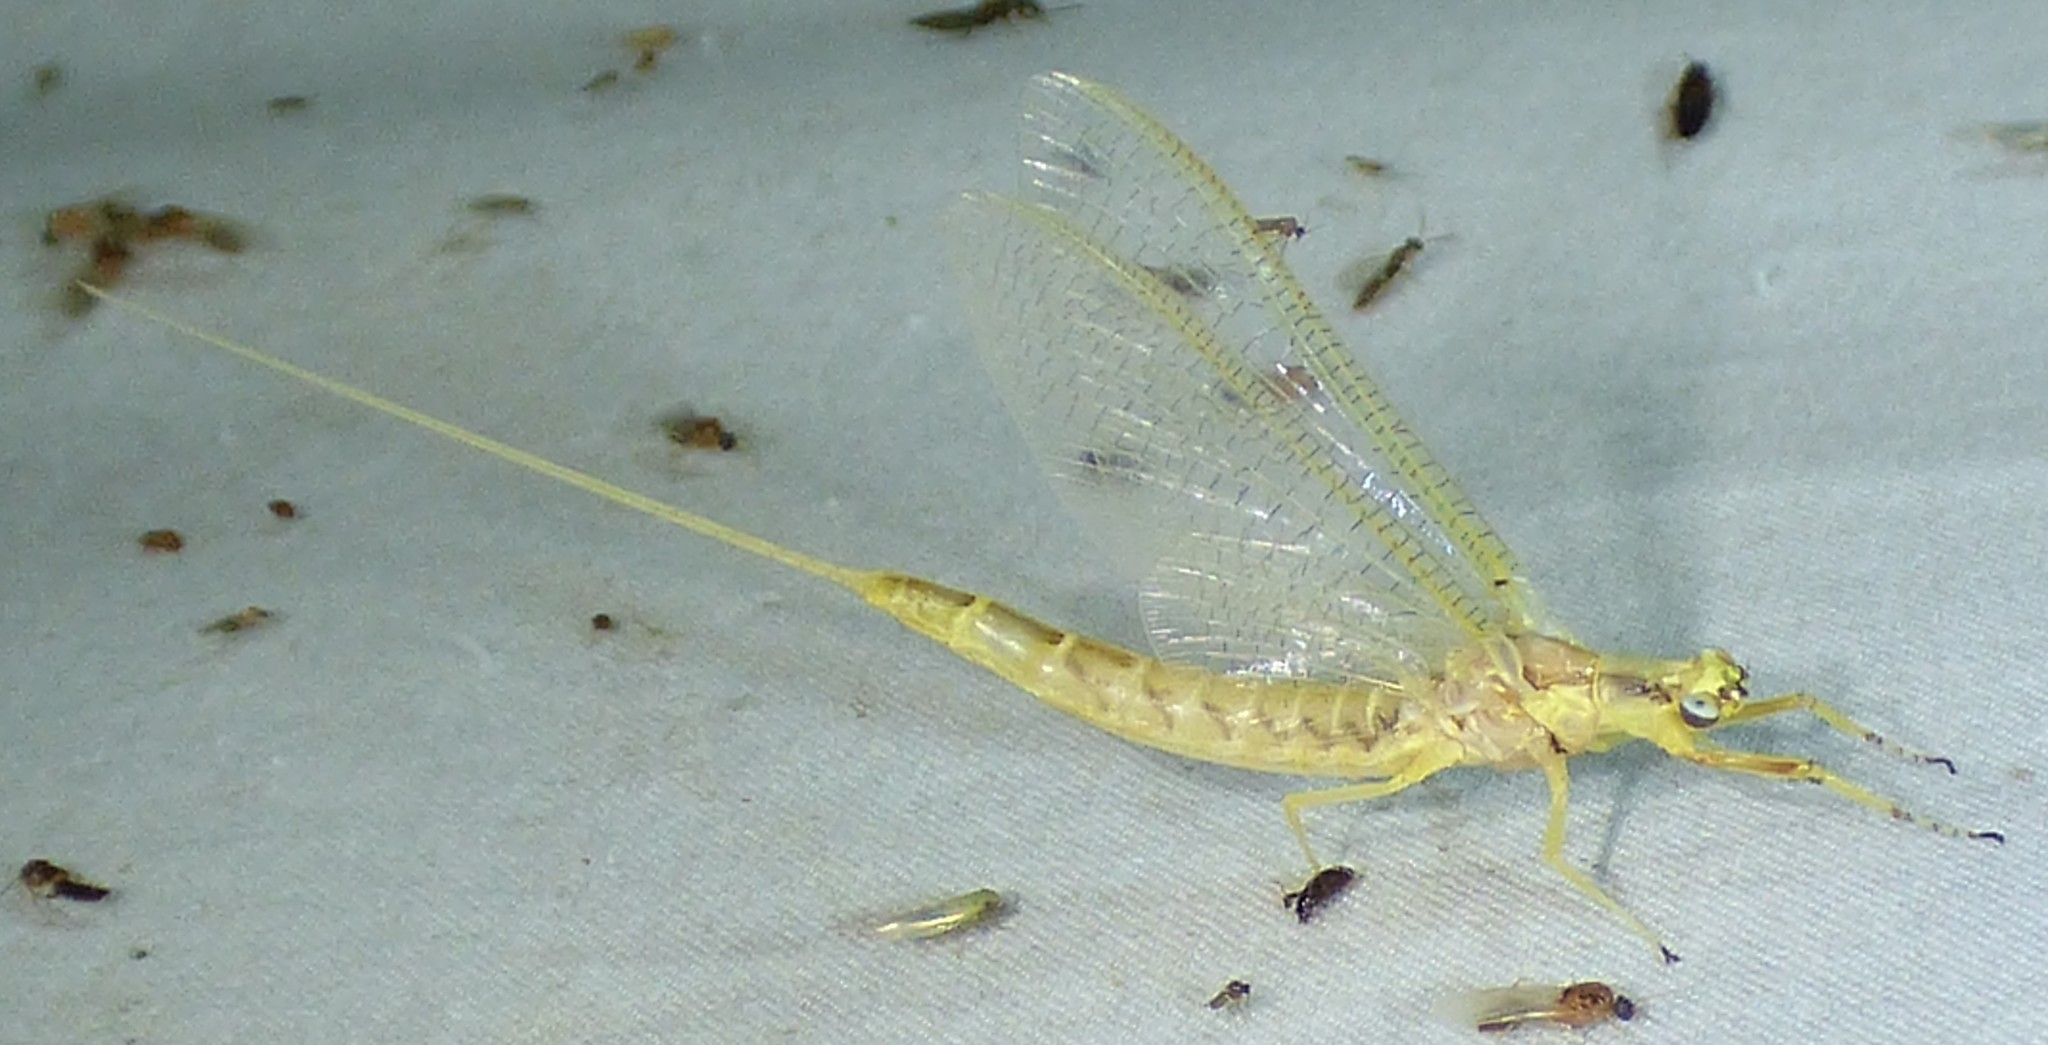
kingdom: Animalia
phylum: Arthropoda
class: Insecta
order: Ephemeroptera
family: Ephemeridae
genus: Hexagenia
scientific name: Hexagenia limbata
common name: Giant mayfly
